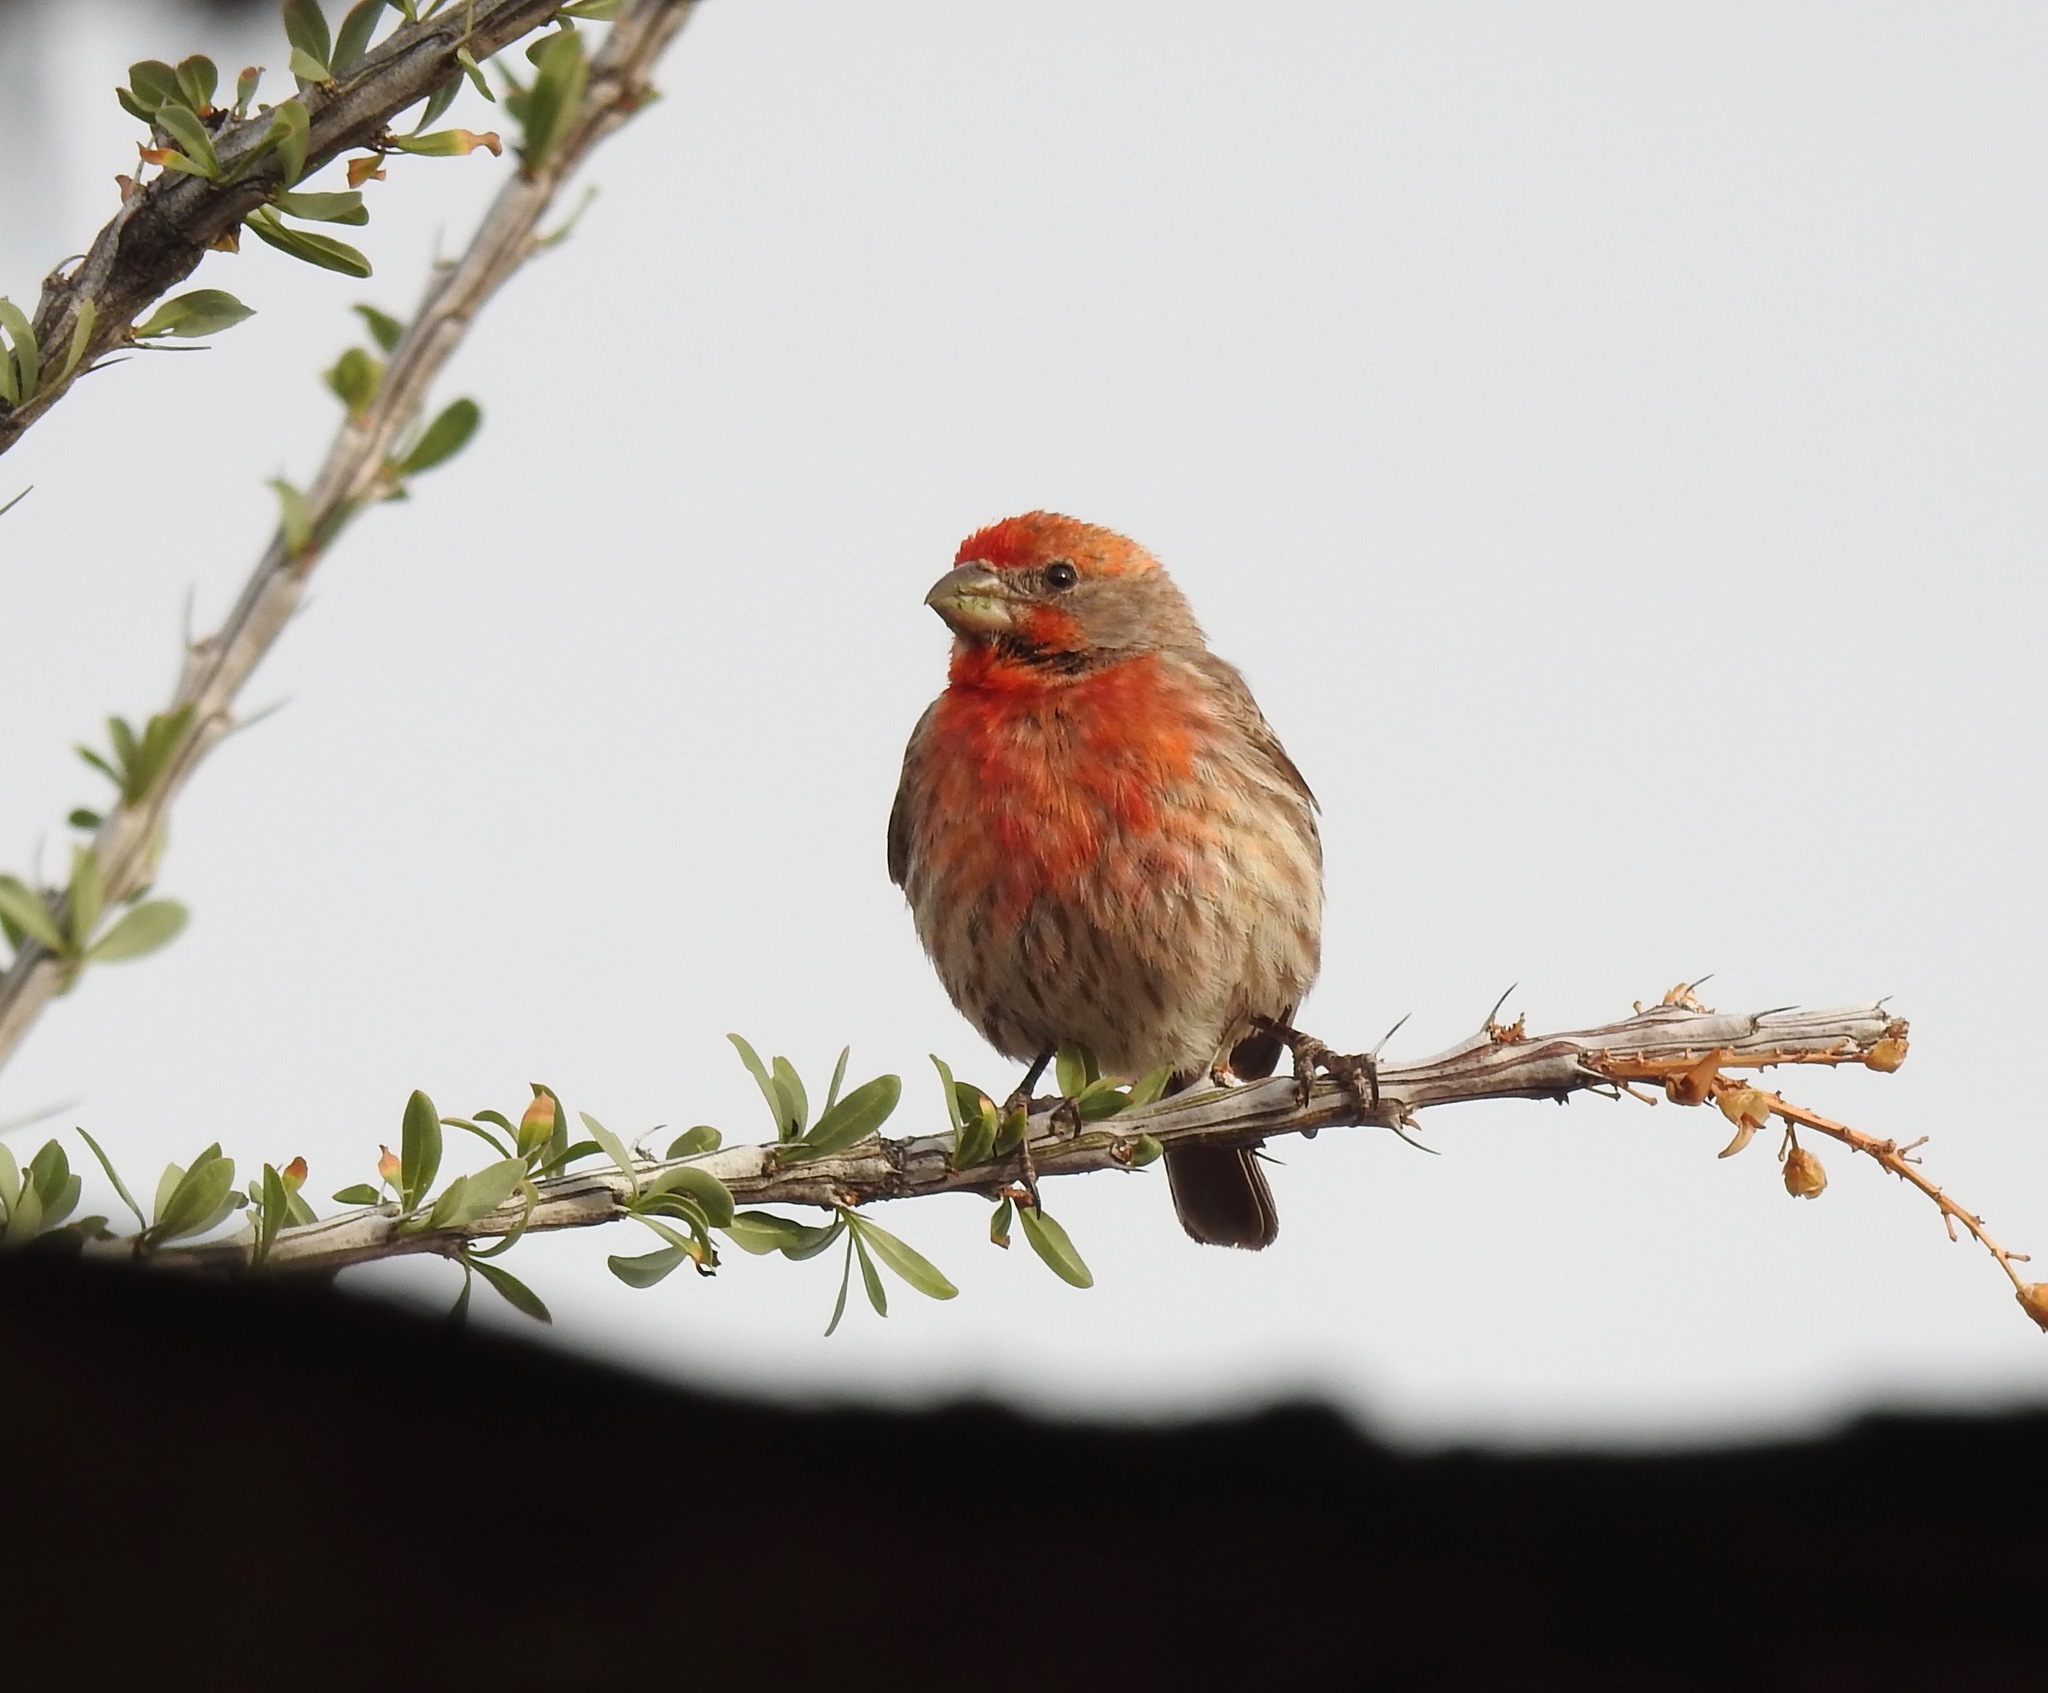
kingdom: Animalia
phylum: Chordata
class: Aves
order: Passeriformes
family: Fringillidae
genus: Haemorhous
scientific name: Haemorhous mexicanus
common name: House finch
